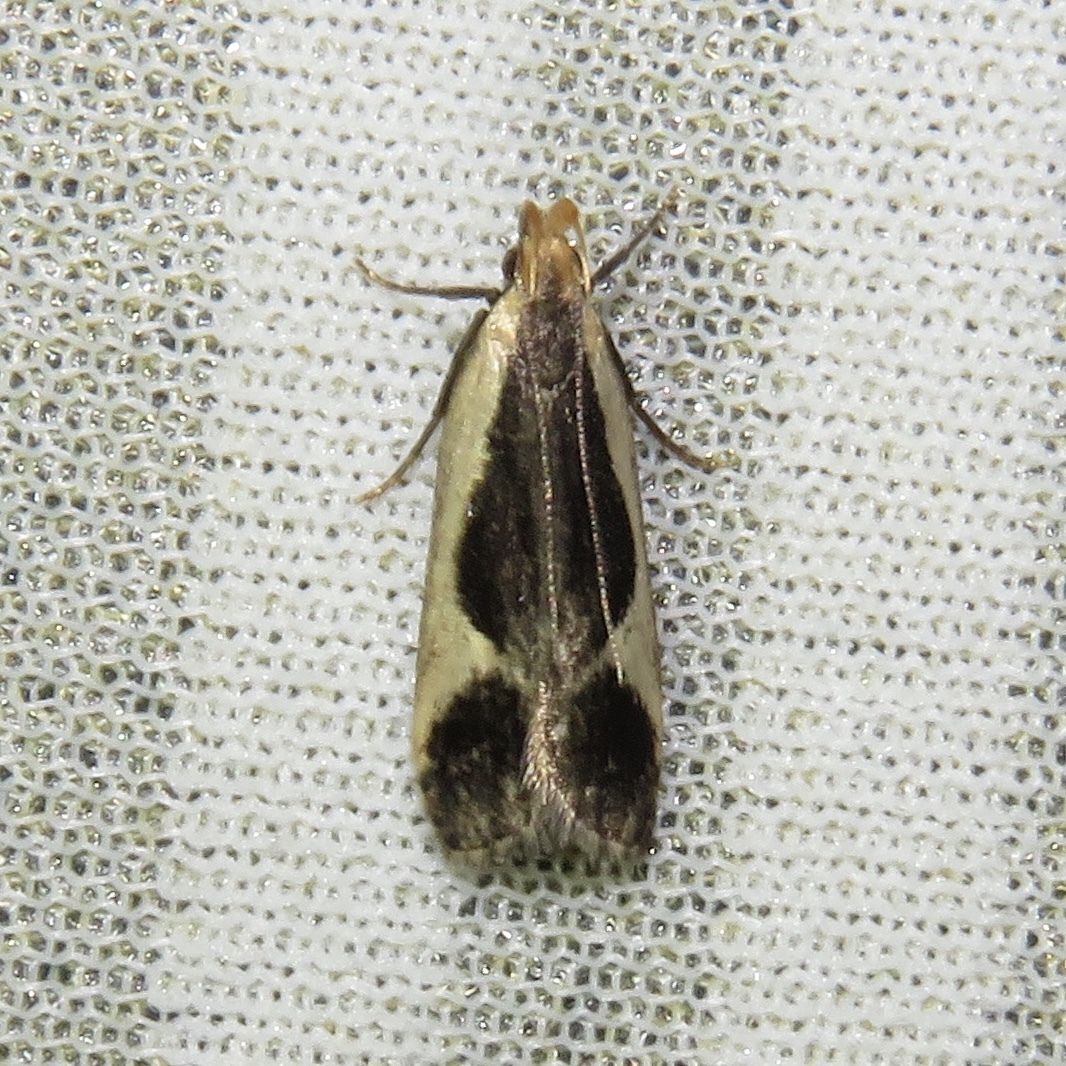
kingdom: Animalia
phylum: Arthropoda
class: Insecta
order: Lepidoptera
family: Gelechiidae
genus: Dichomeris
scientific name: Dichomeris flavocostella
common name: Cream-edged dichomeris moth
